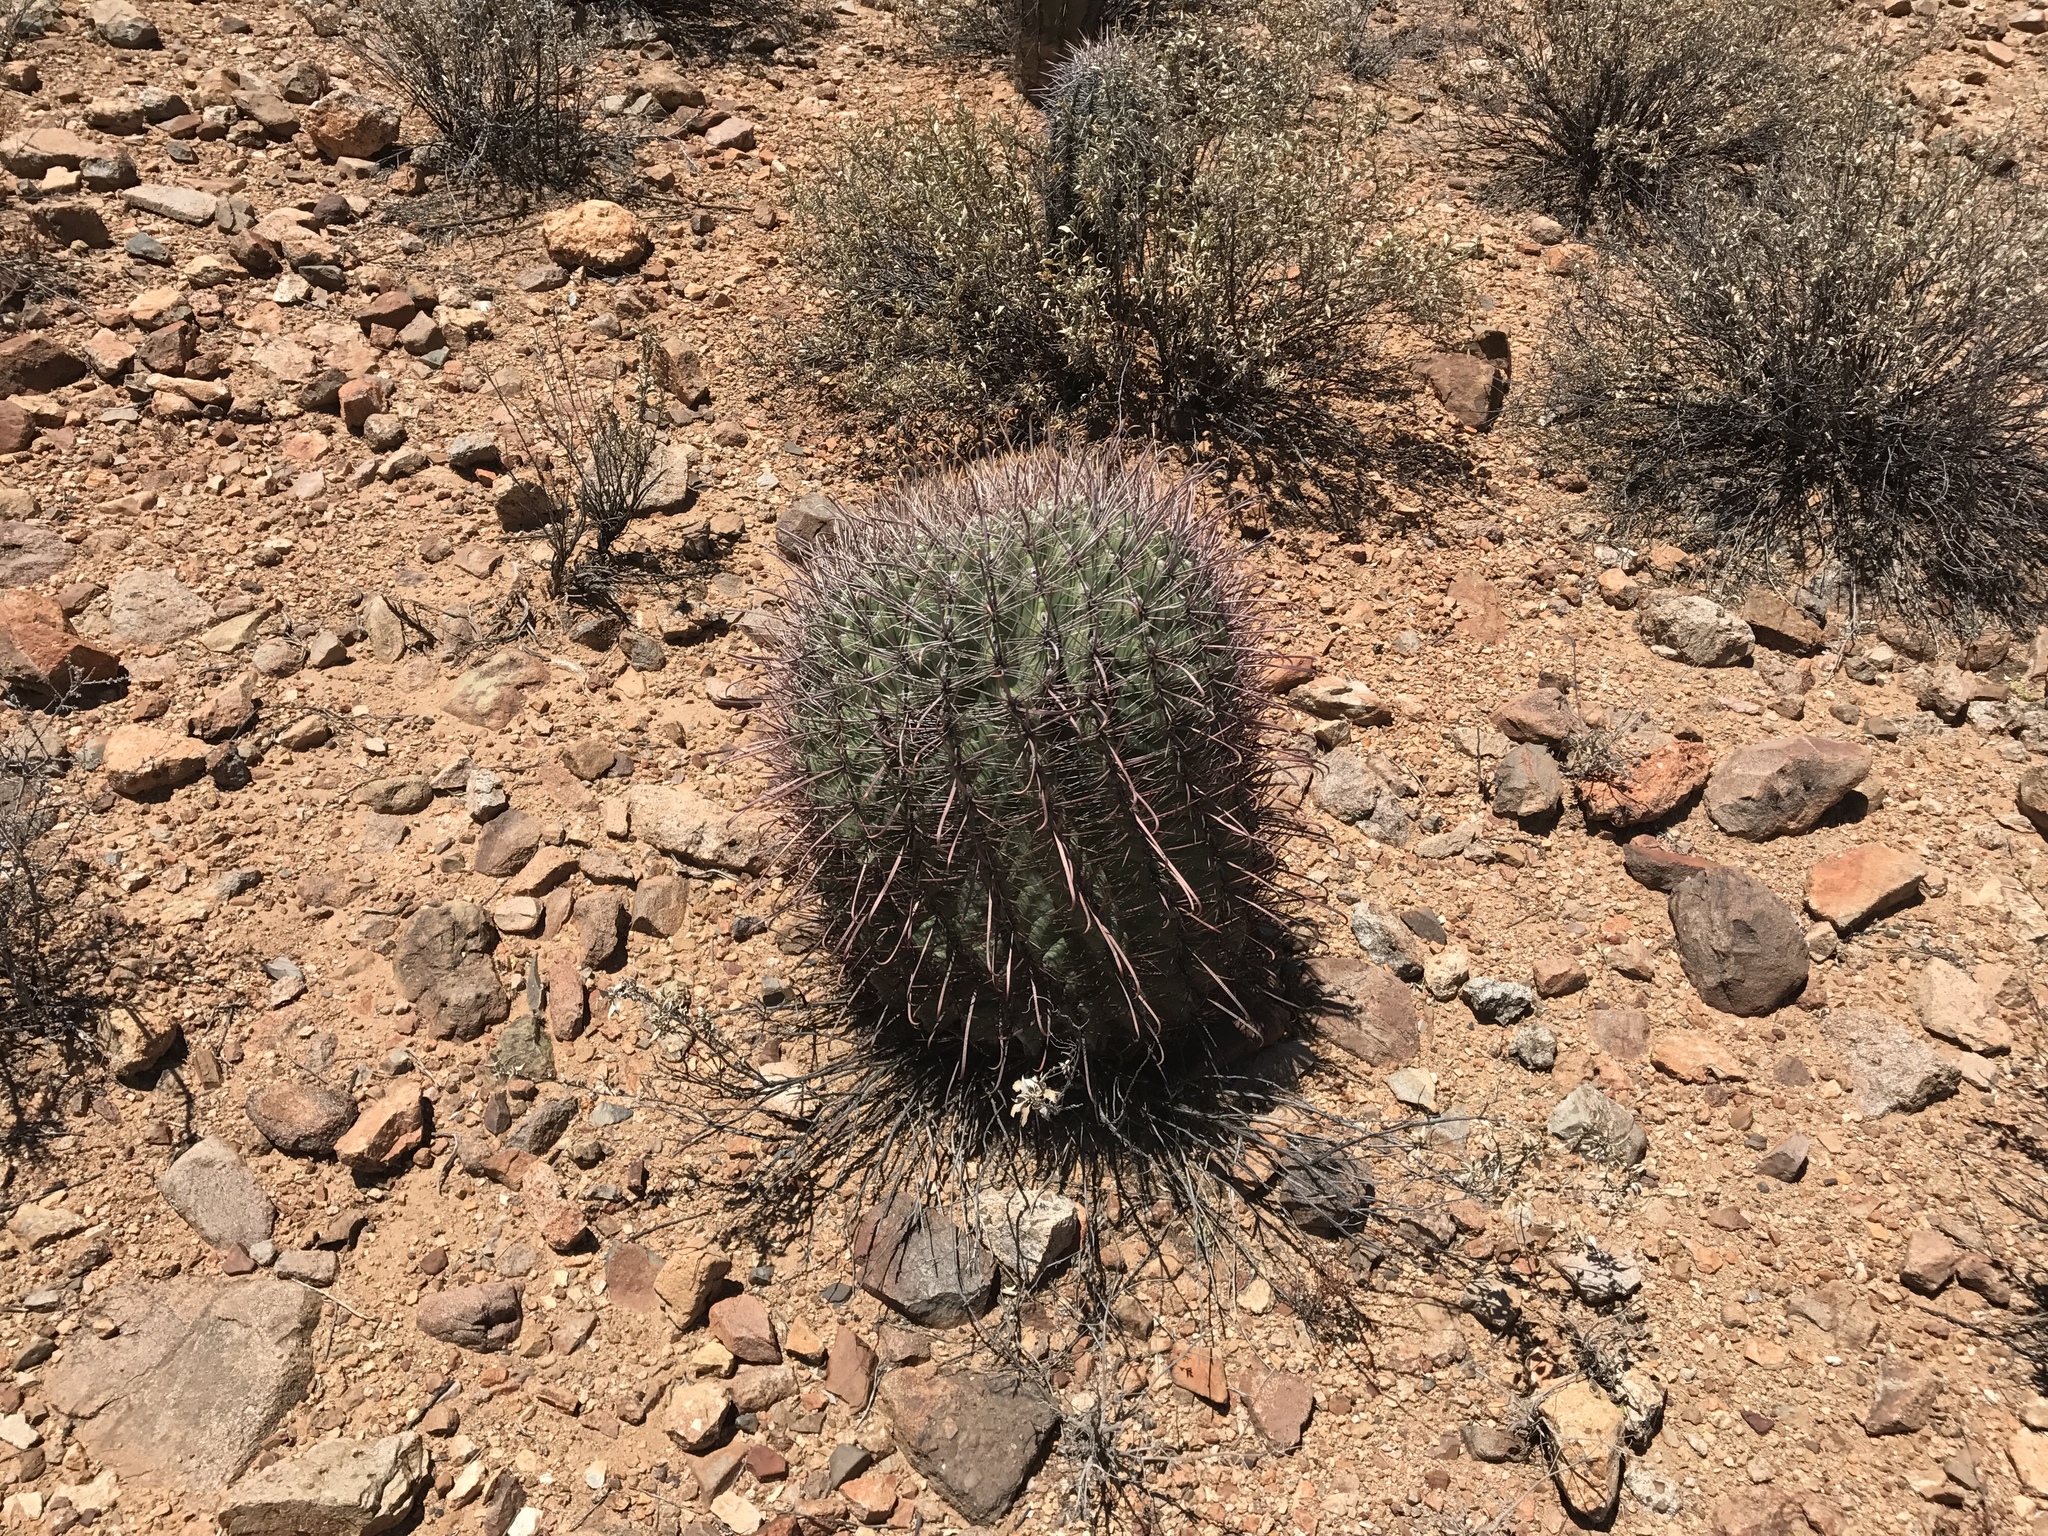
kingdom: Plantae
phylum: Tracheophyta
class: Magnoliopsida
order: Caryophyllales
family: Cactaceae
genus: Ferocactus
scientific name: Ferocactus wislizeni
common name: Candy barrel cactus
